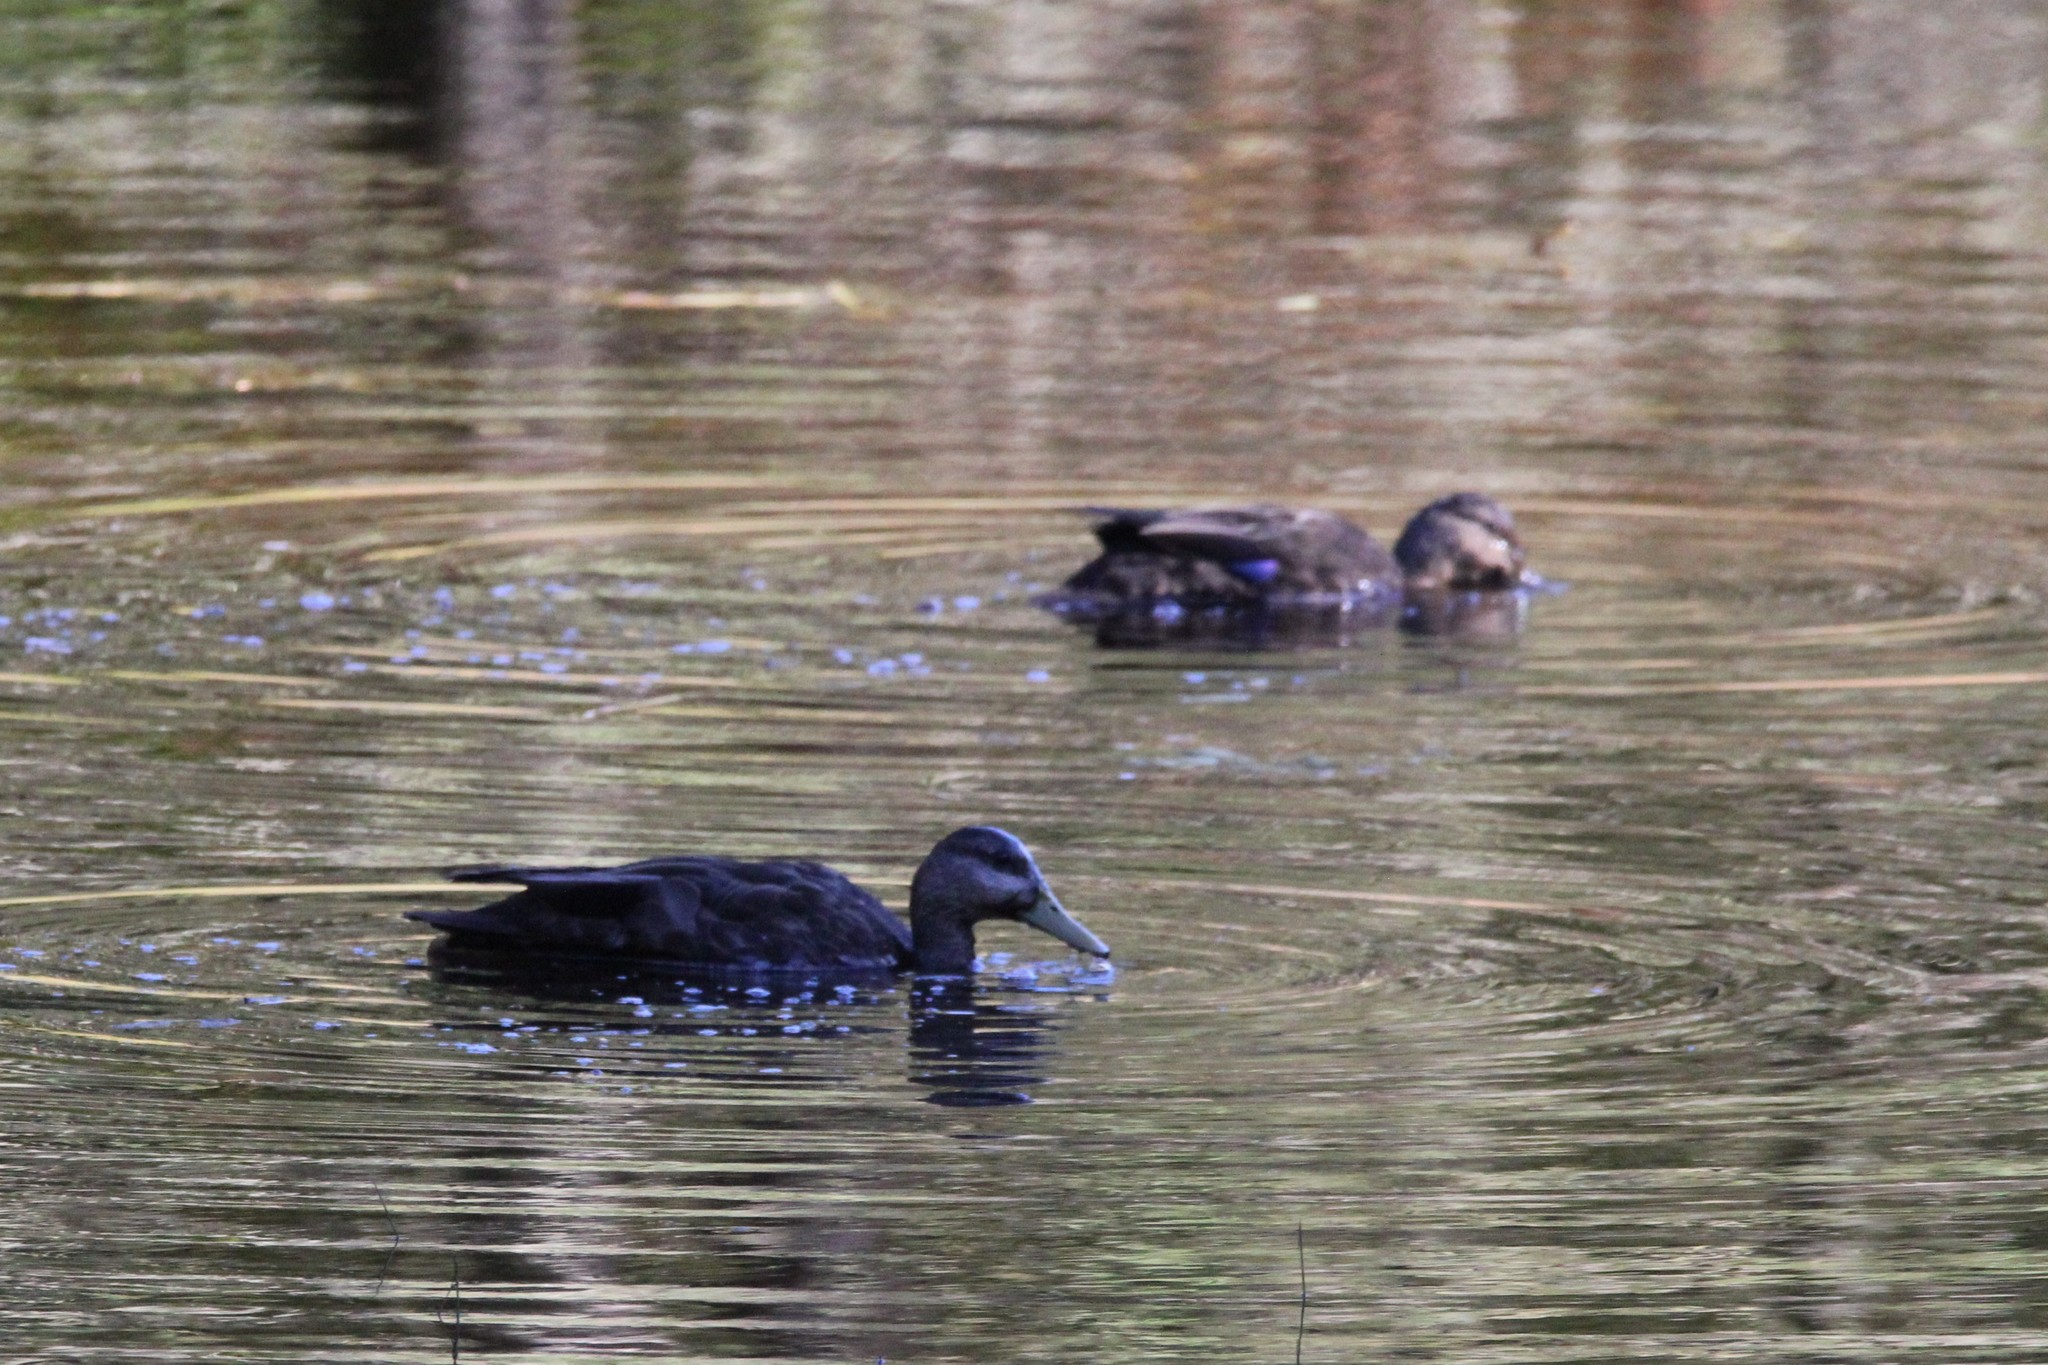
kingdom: Animalia
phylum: Chordata
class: Aves
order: Anseriformes
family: Anatidae
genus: Anas
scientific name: Anas rubripes
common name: American black duck
